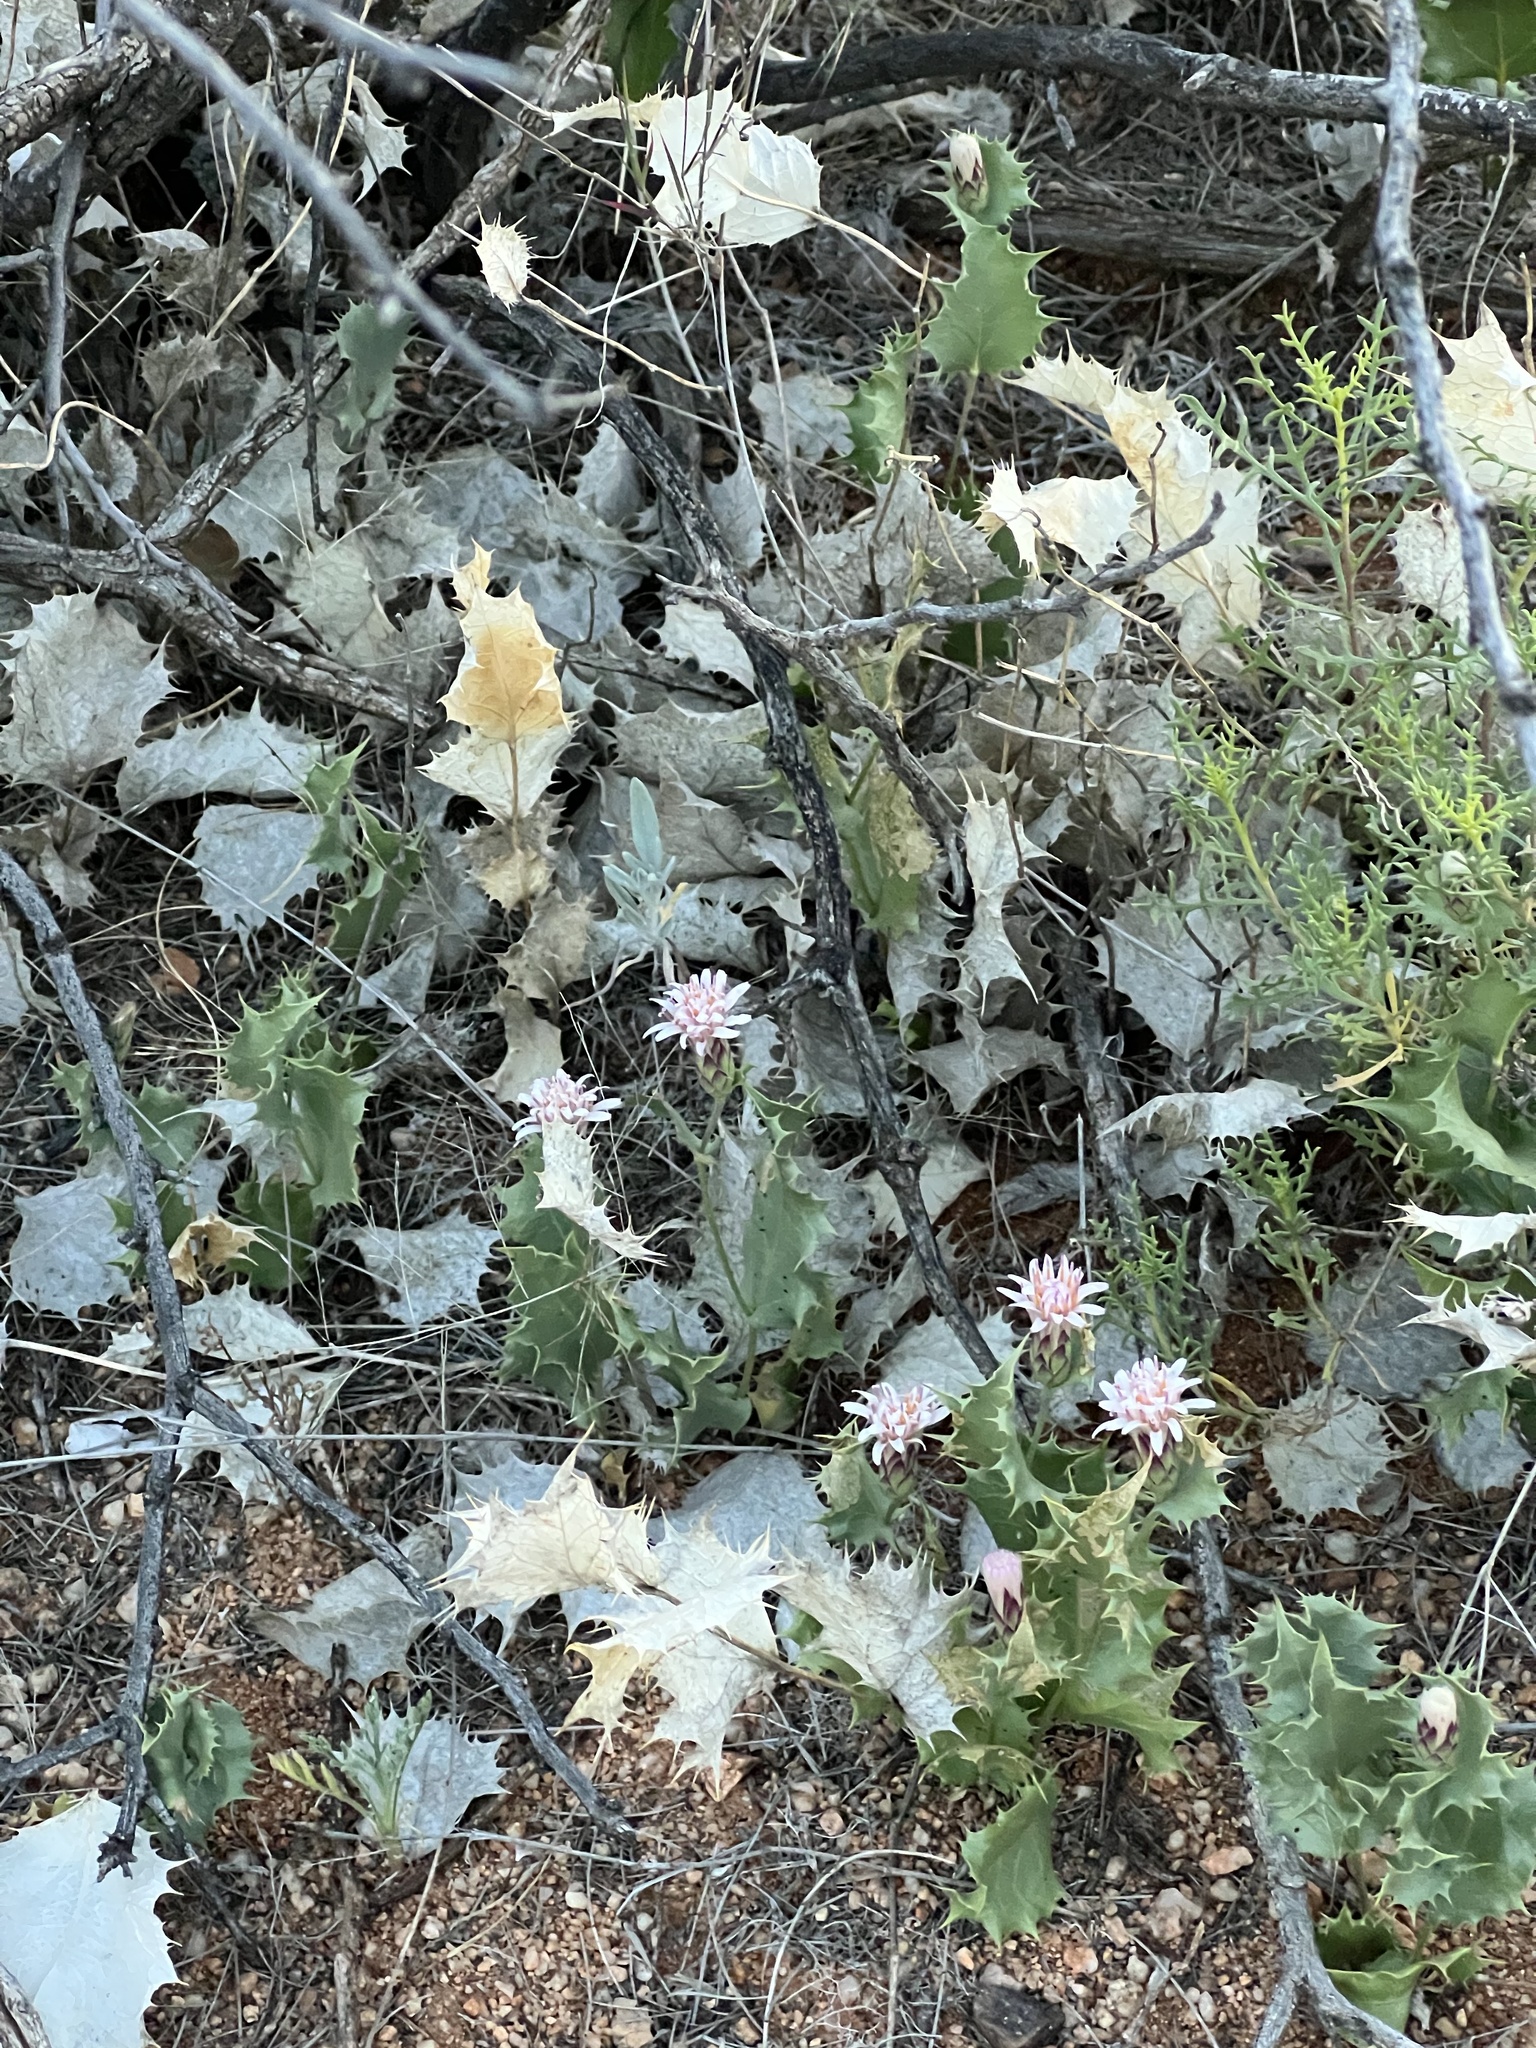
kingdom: Plantae
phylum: Tracheophyta
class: Magnoliopsida
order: Asterales
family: Asteraceae
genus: Acourtia
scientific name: Acourtia nana
